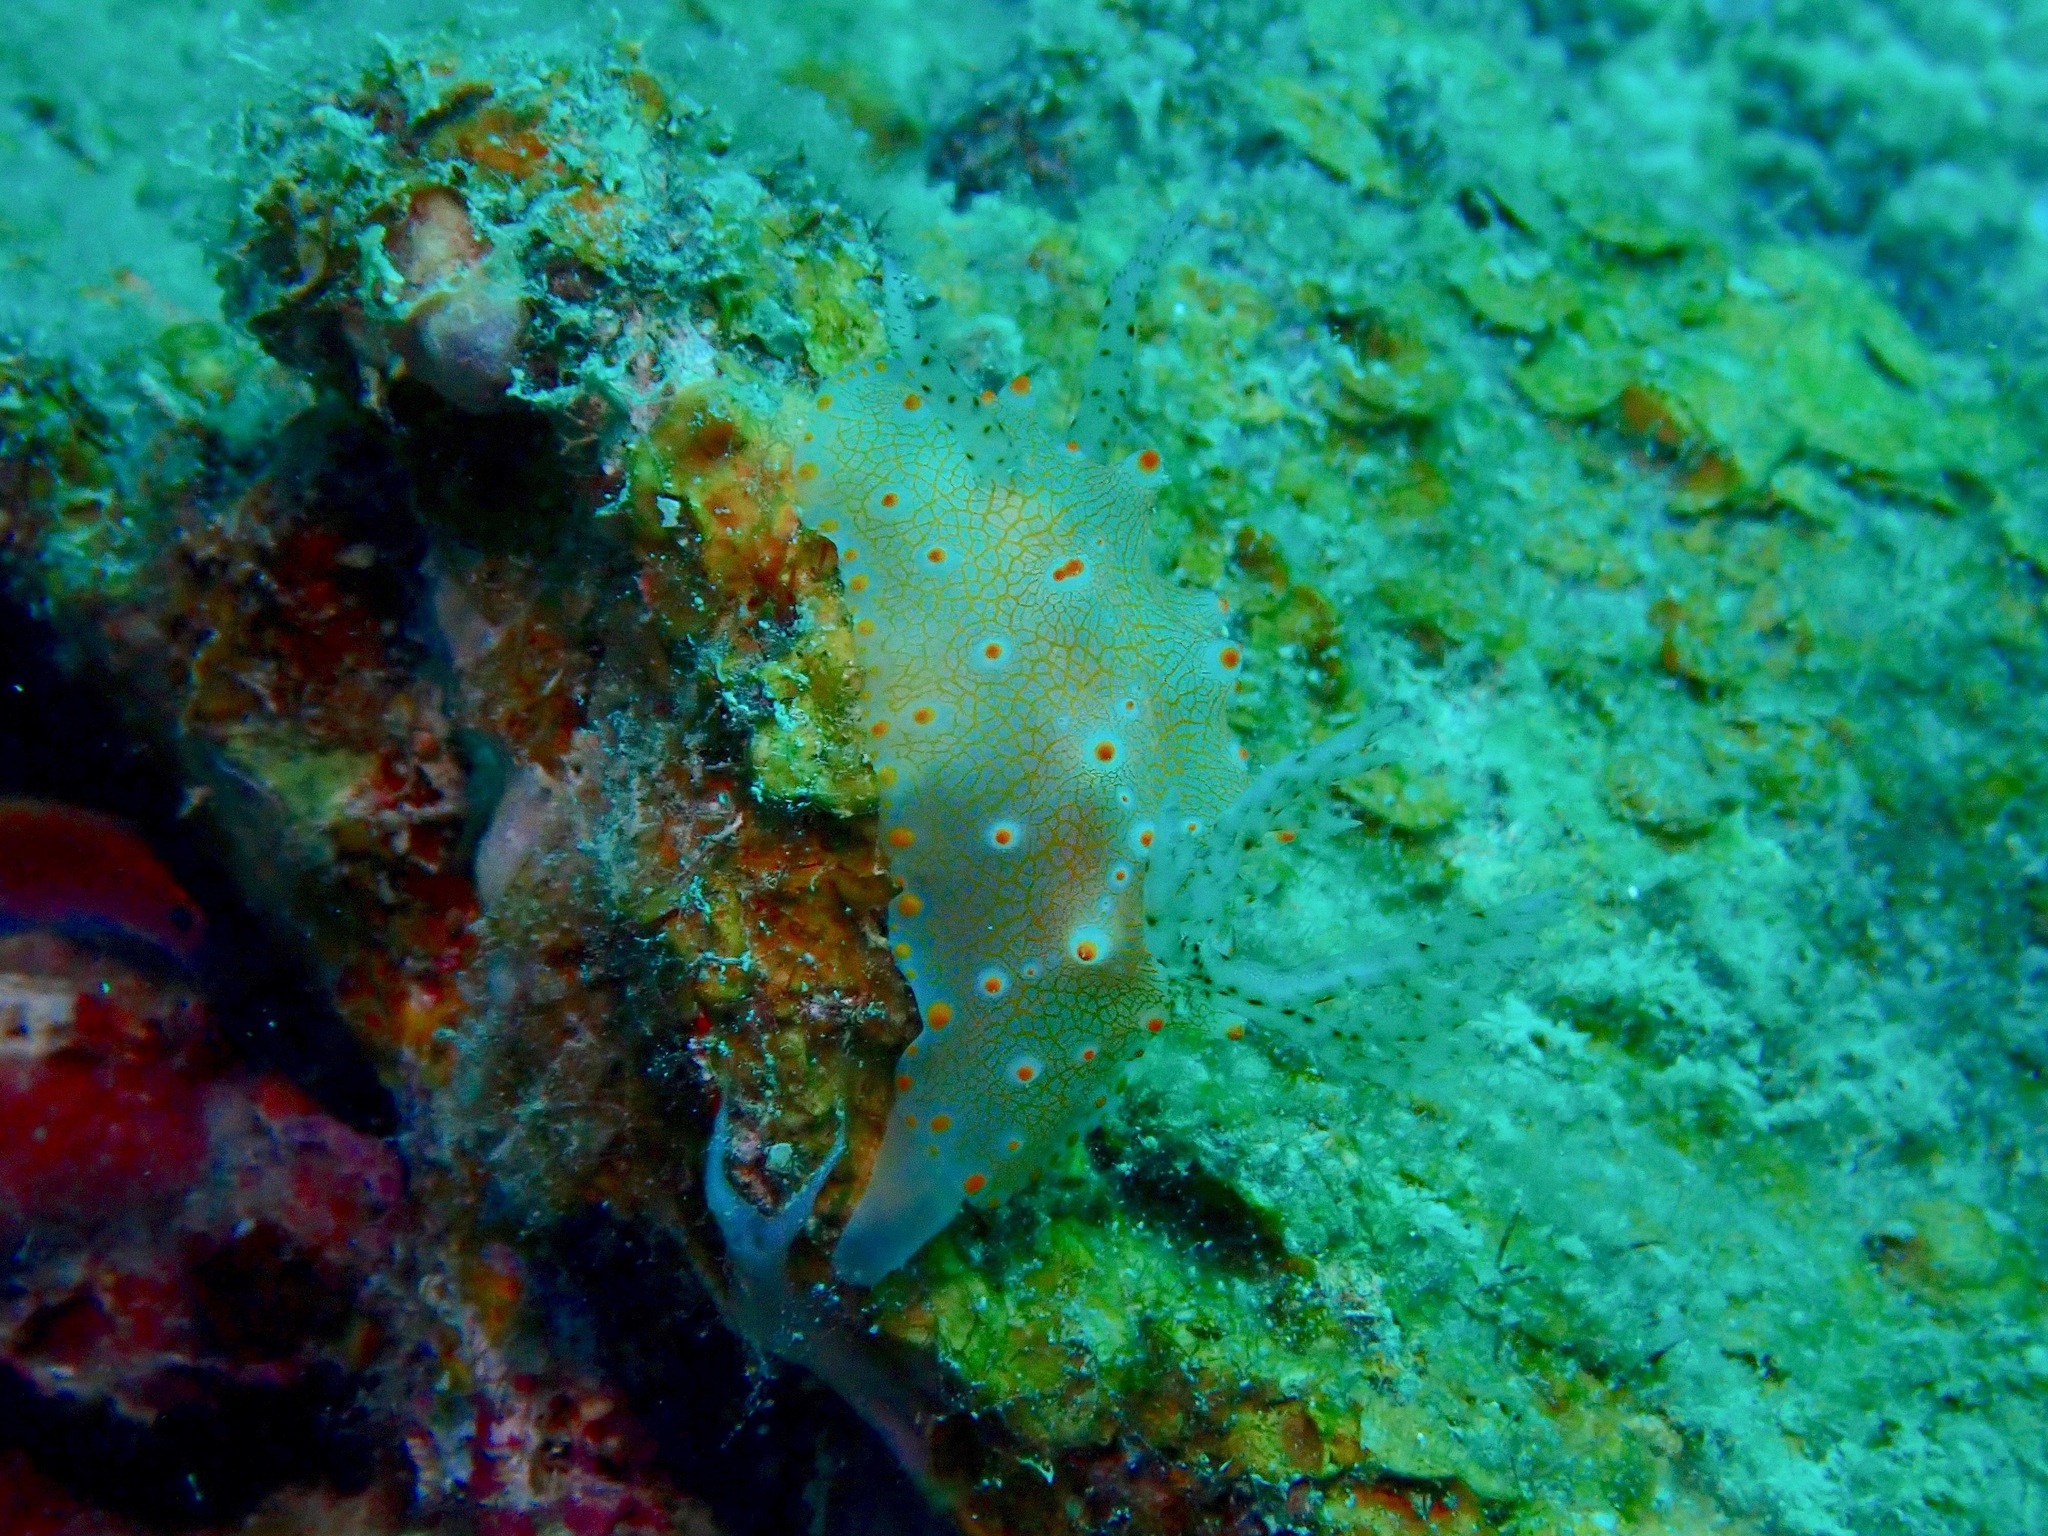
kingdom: Animalia
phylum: Mollusca
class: Gastropoda
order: Nudibranchia
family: Discodorididae
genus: Halgerda
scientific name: Halgerda batangas
